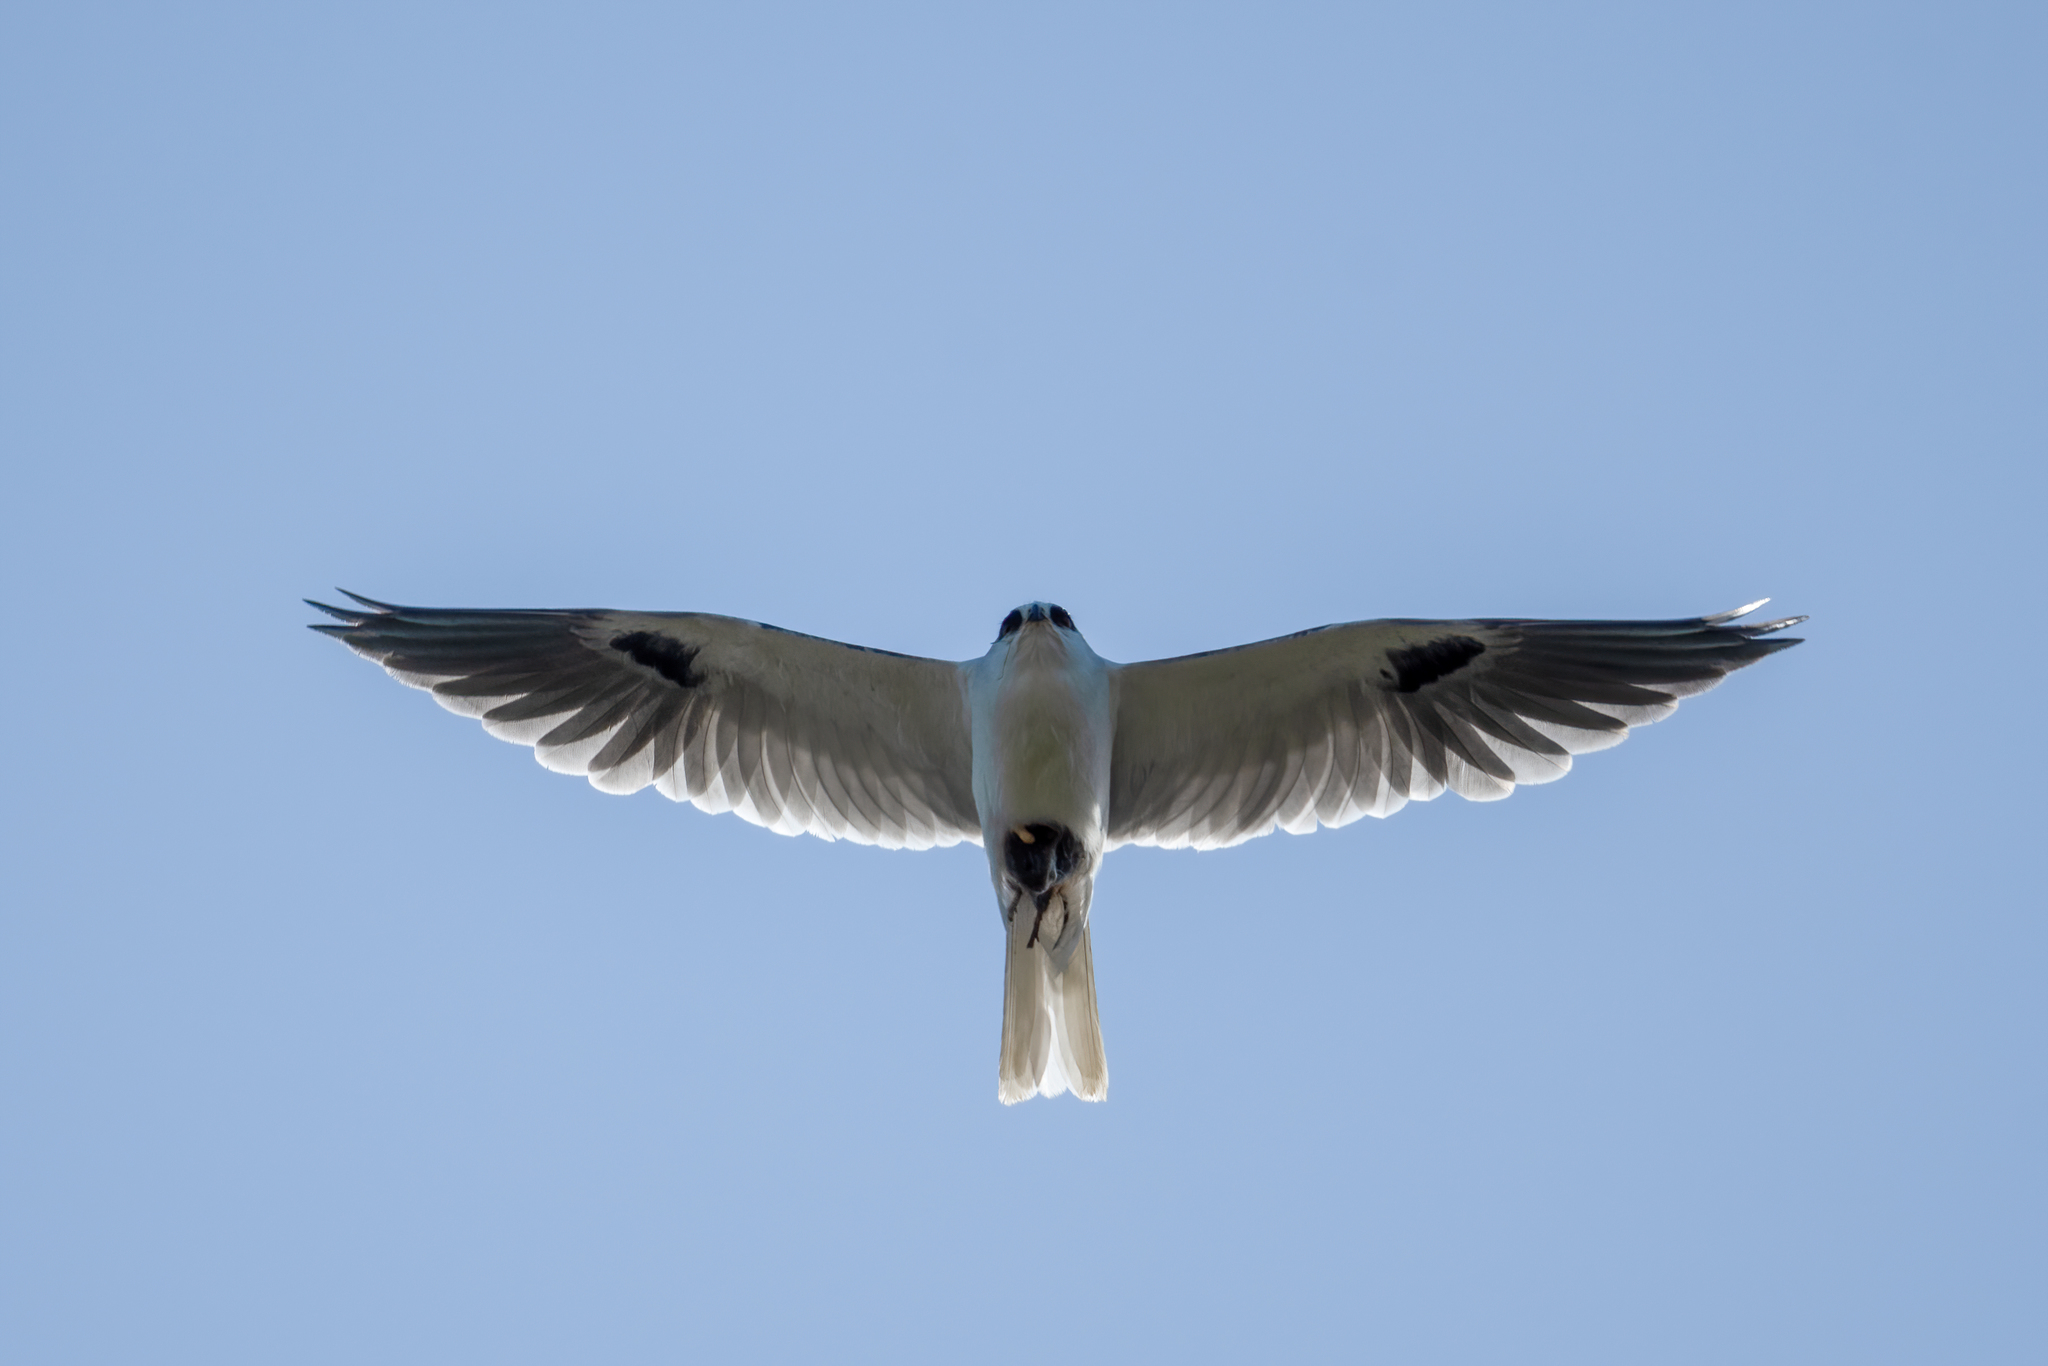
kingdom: Animalia
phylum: Chordata
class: Aves
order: Accipitriformes
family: Accipitridae
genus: Elanus
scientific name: Elanus leucurus
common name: White-tailed kite
